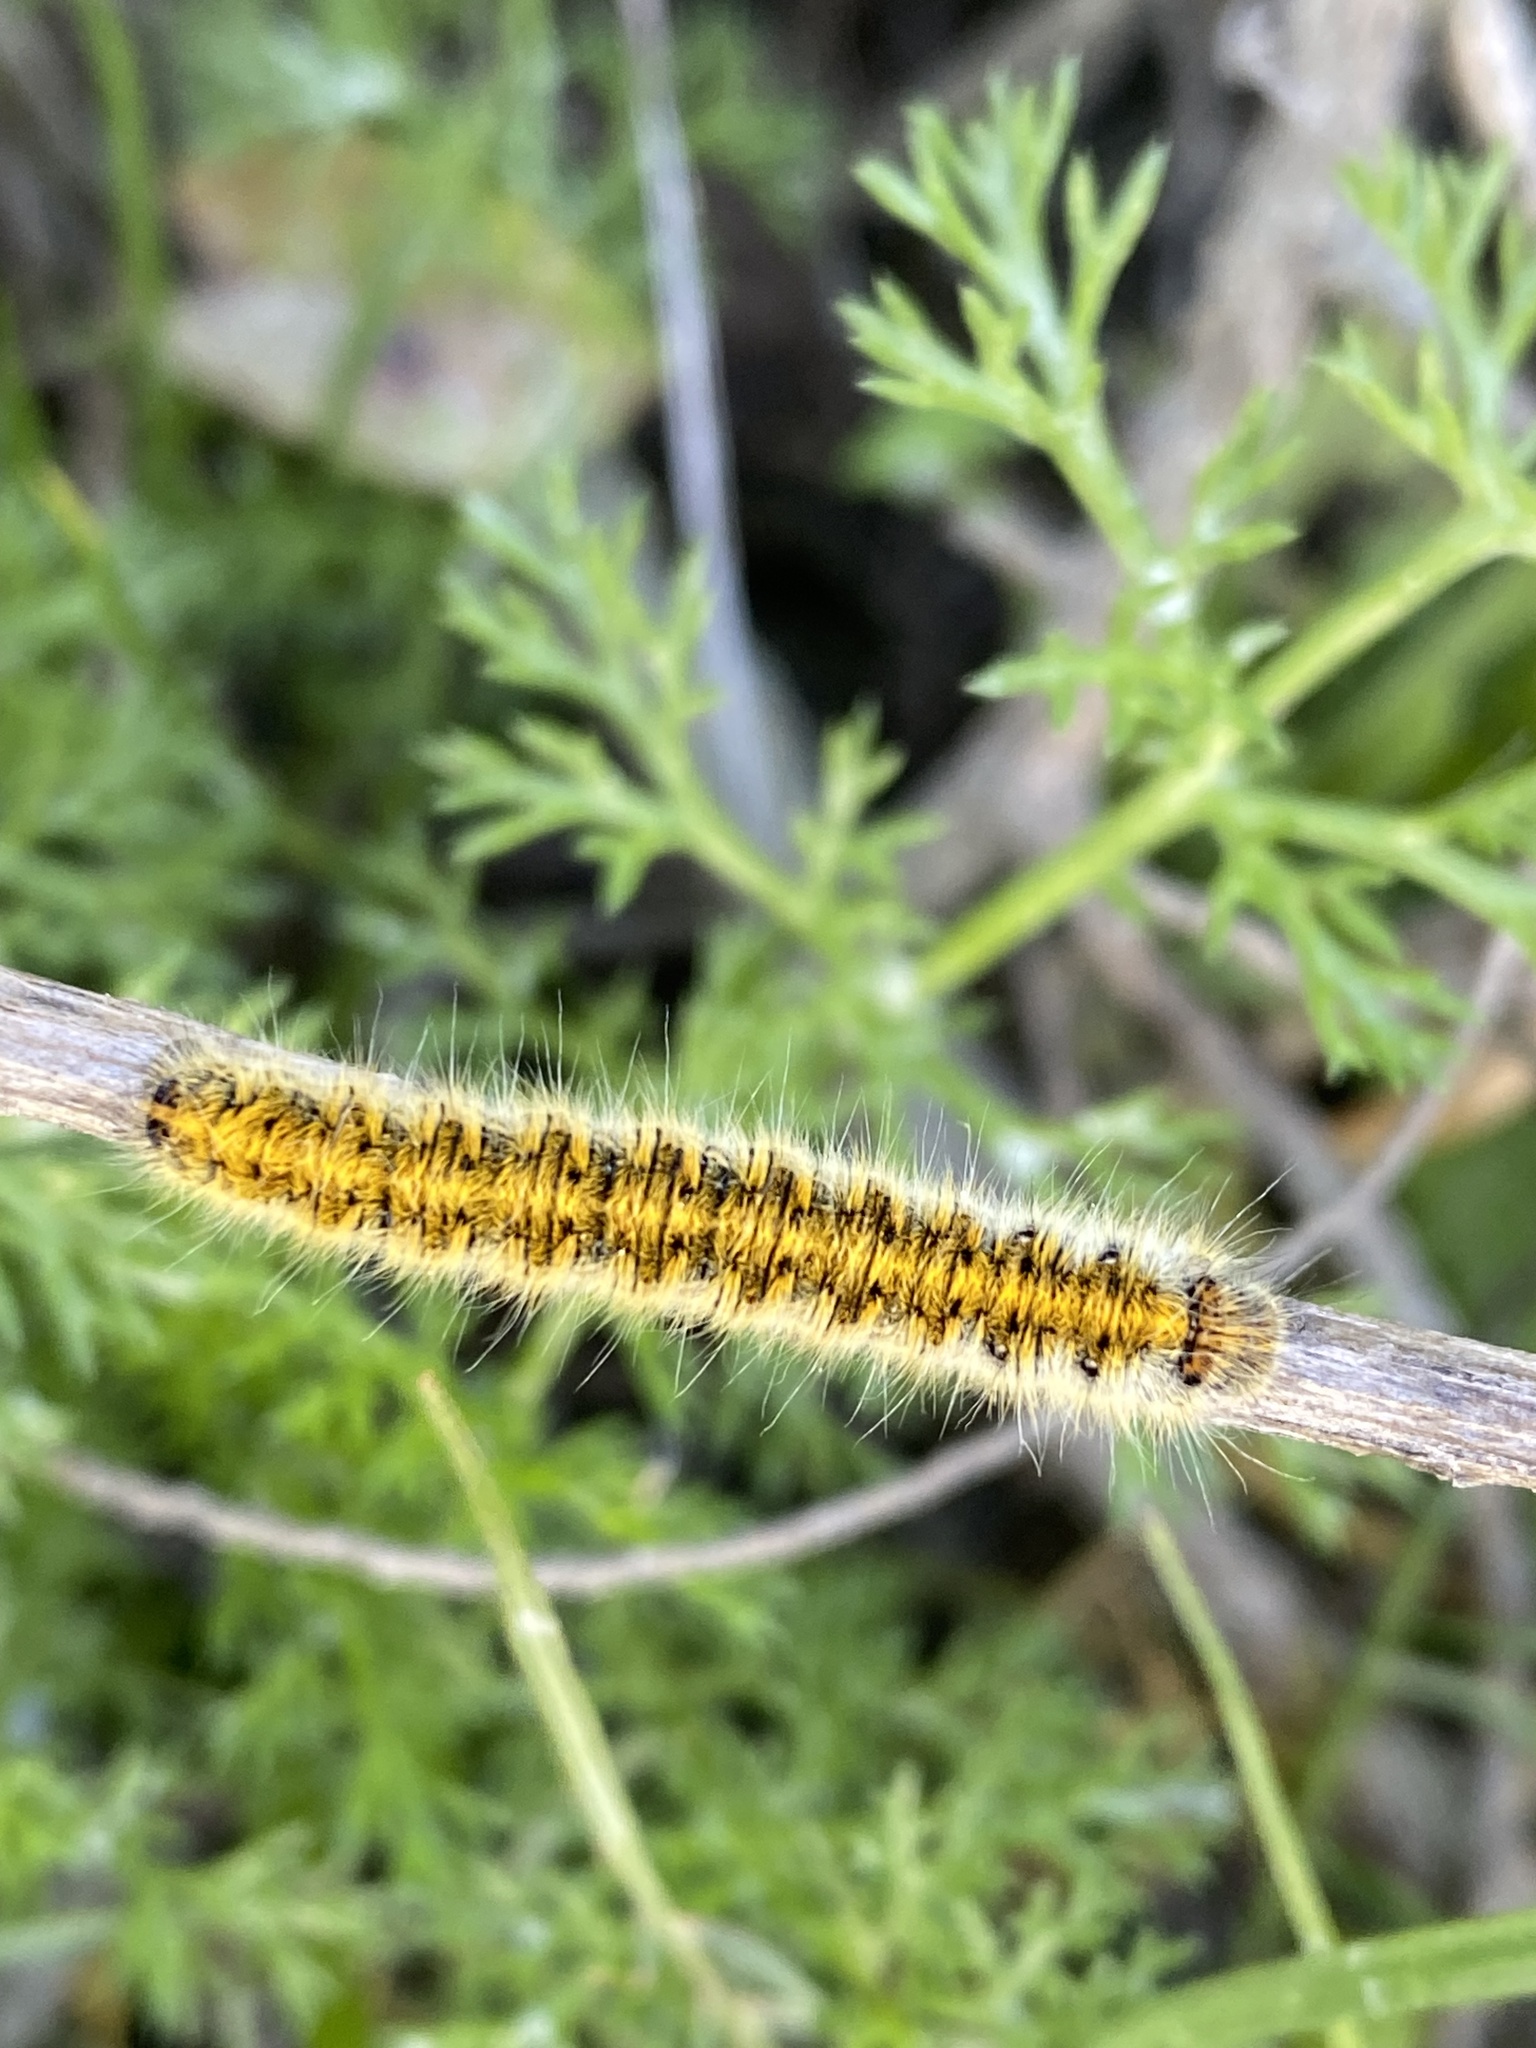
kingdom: Animalia
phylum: Arthropoda
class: Insecta
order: Lepidoptera
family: Lasiocampidae
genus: Lasiocampa
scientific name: Lasiocampa trifolii
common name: Grass eggar
